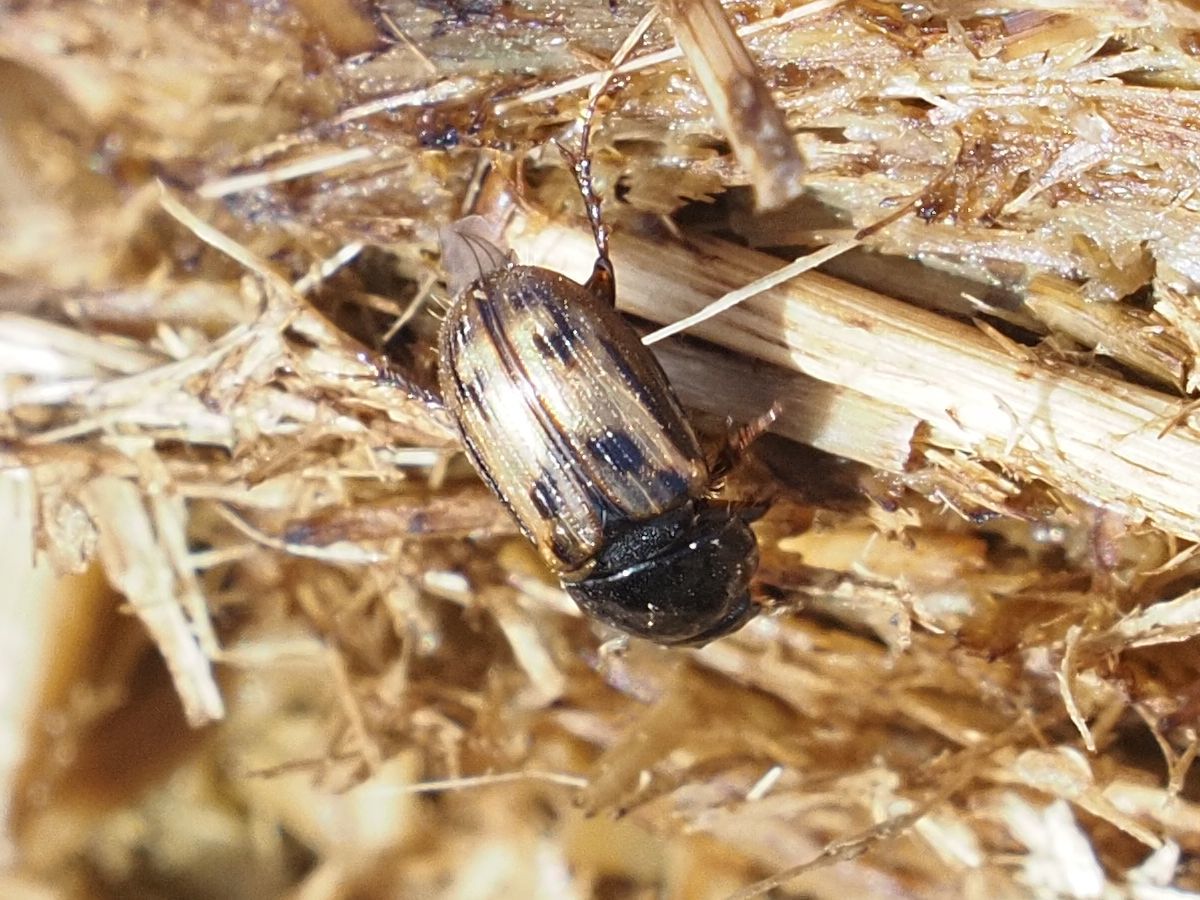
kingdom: Animalia
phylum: Arthropoda
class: Insecta
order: Coleoptera
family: Scarabaeidae
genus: Chilothorax
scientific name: Chilothorax distinctus
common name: Maculated dung beetle
